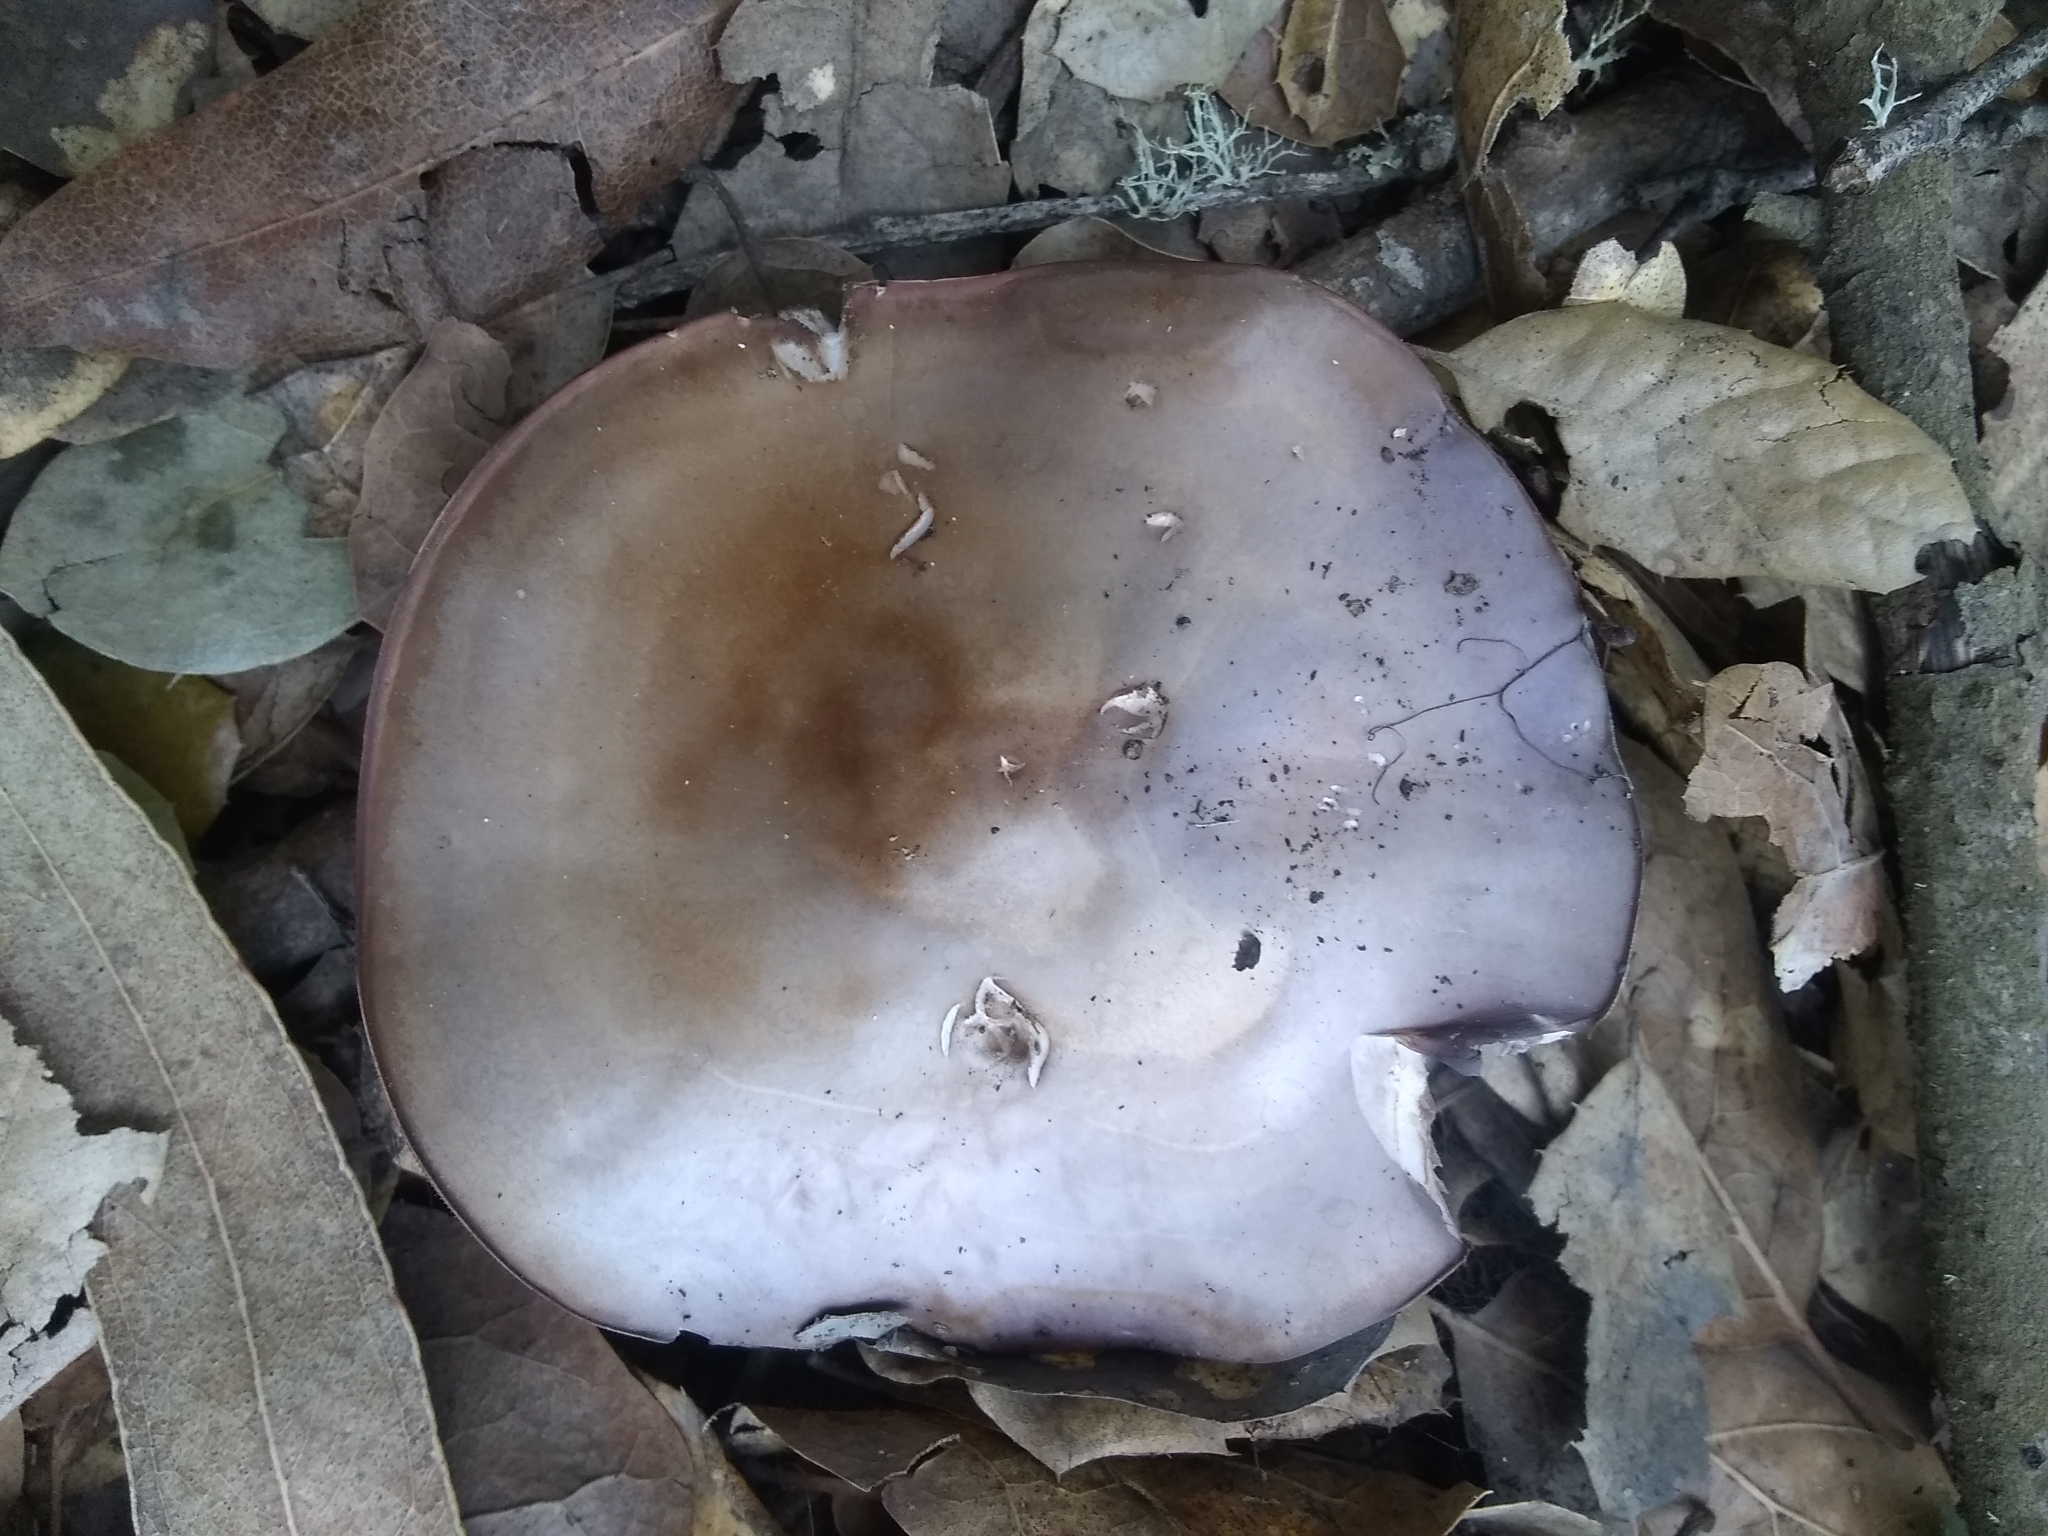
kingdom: Fungi
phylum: Basidiomycota
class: Agaricomycetes
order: Agaricales
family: Tricholomataceae
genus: Collybia
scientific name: Collybia
